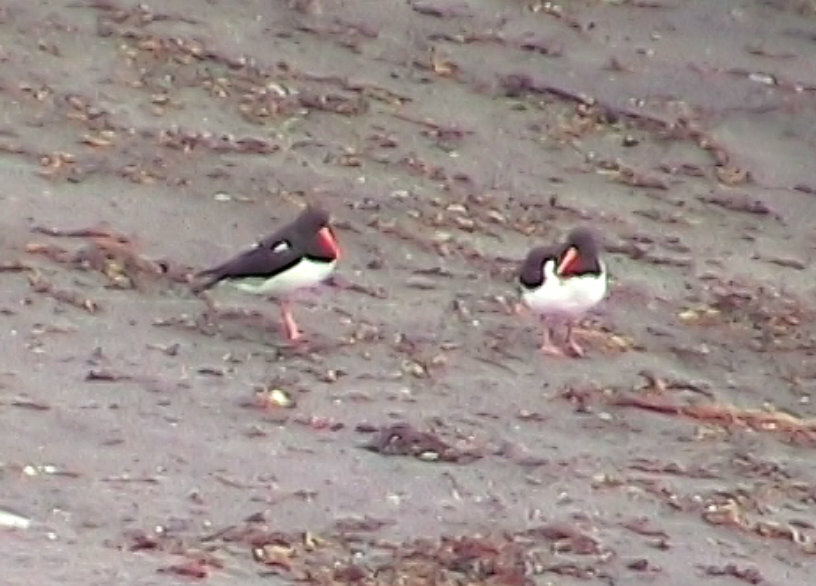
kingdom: Animalia
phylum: Chordata
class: Aves
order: Charadriiformes
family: Haematopodidae
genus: Haematopus
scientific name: Haematopus ostralegus
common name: Eurasian oystercatcher
